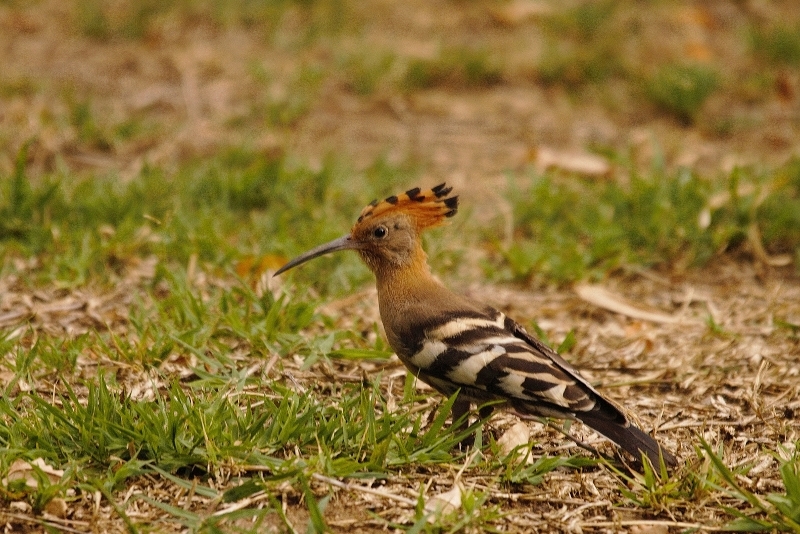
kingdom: Animalia
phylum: Chordata
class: Aves
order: Bucerotiformes
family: Upupidae
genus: Upupa
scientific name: Upupa africana
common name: African hoopoe
